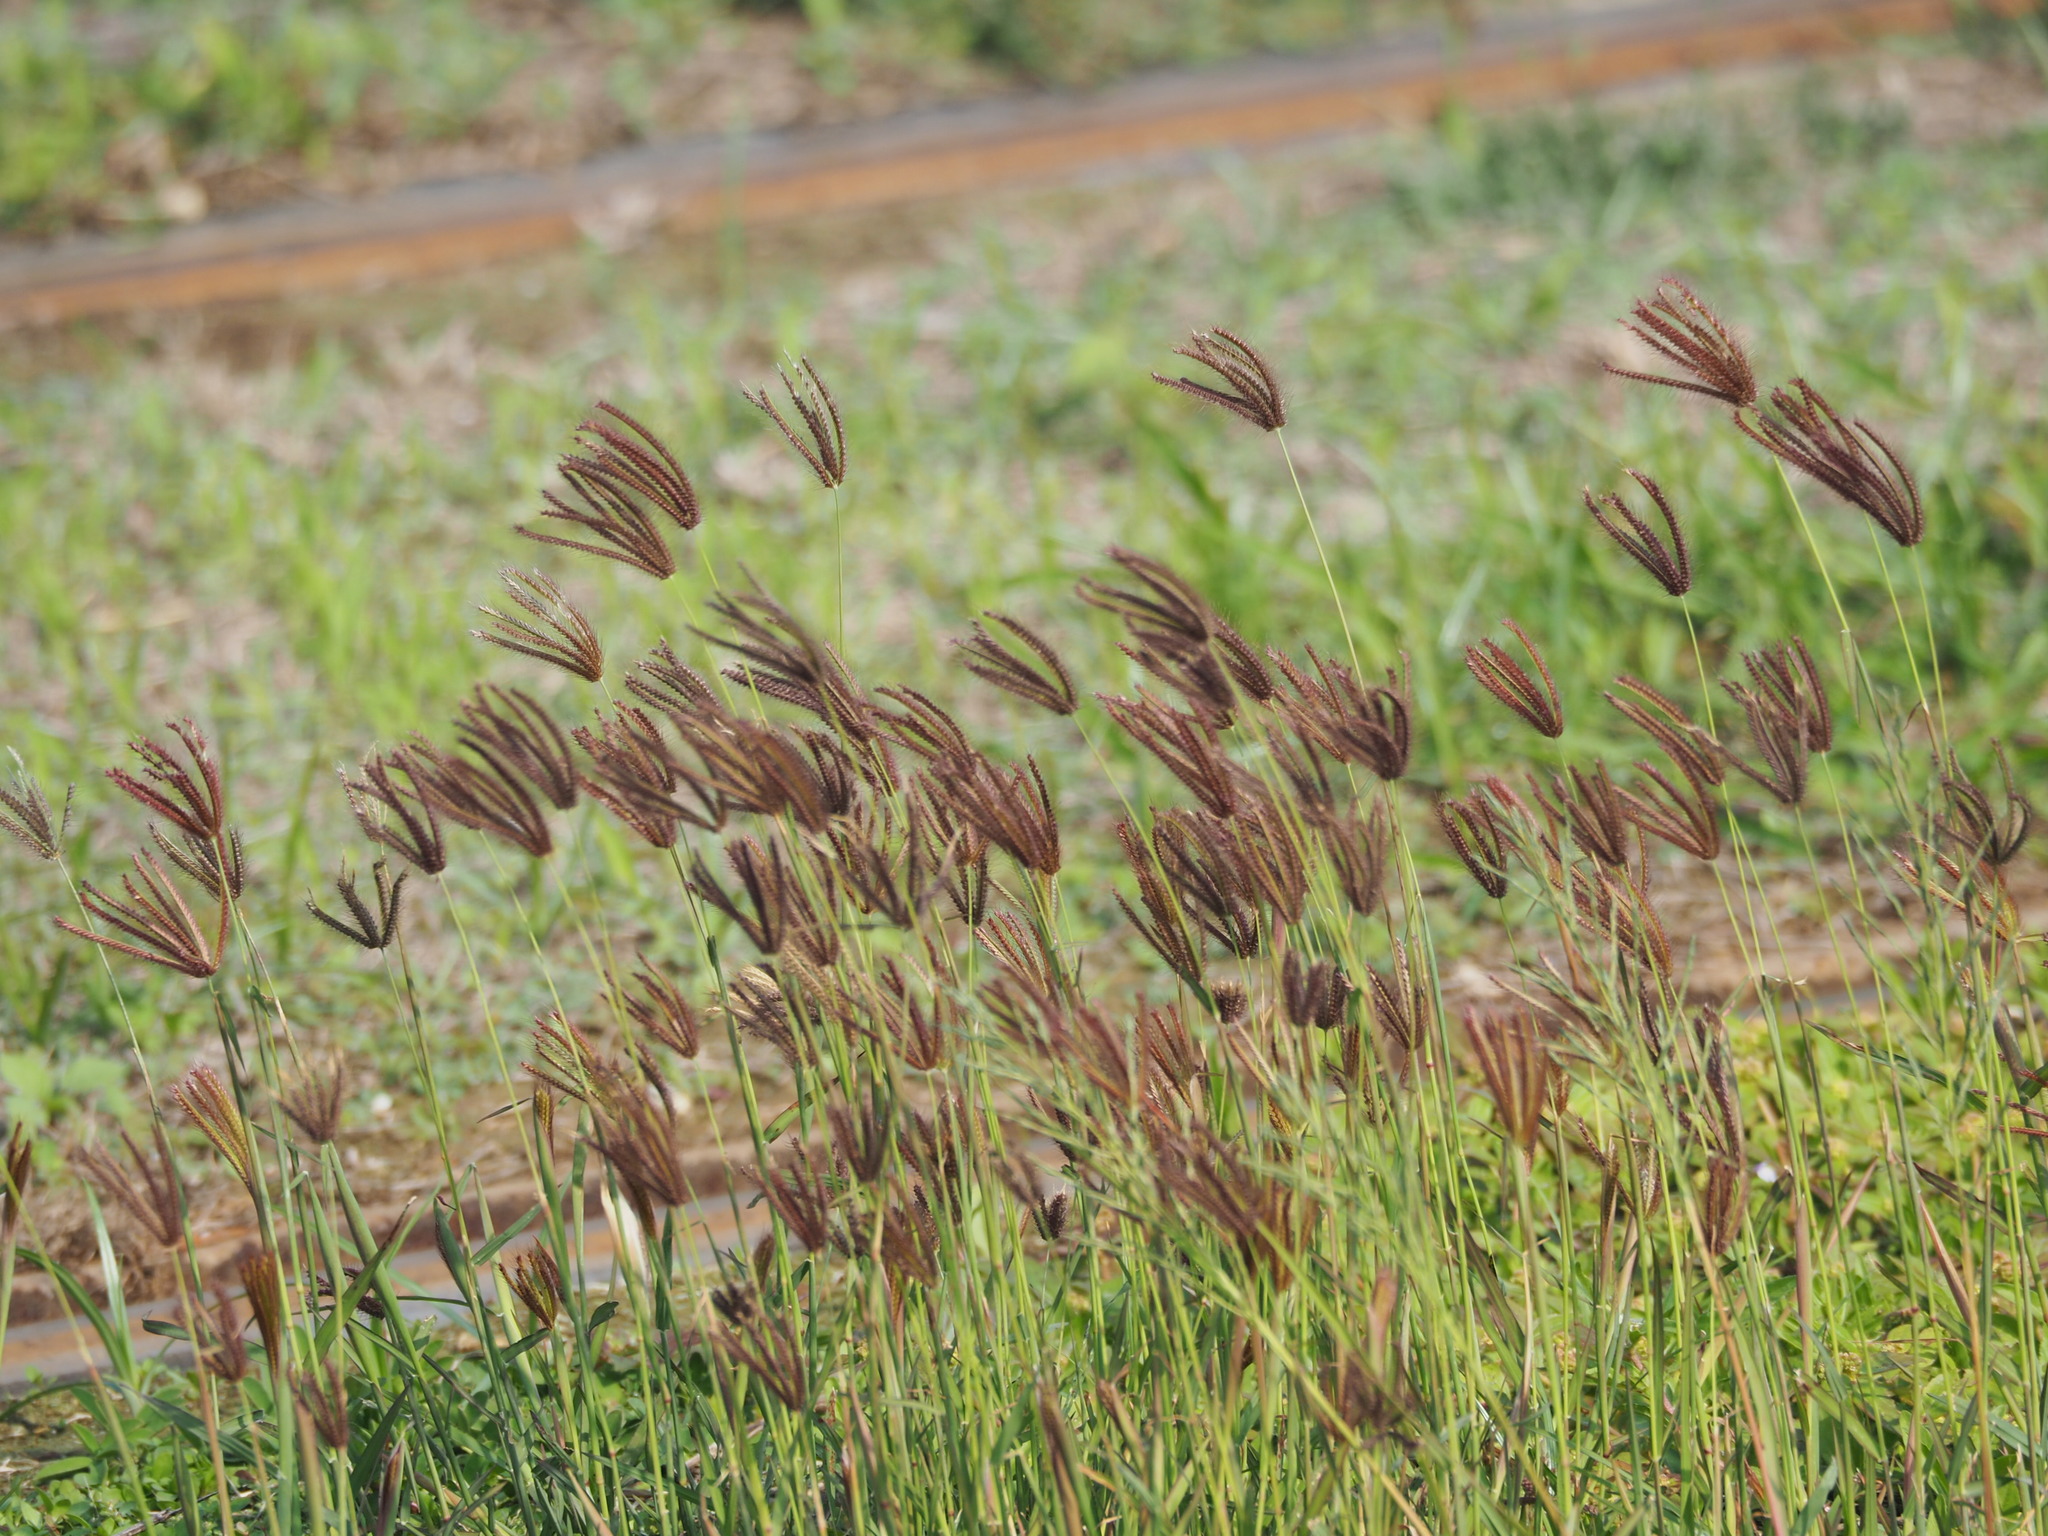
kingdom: Plantae
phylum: Tracheophyta
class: Liliopsida
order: Poales
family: Poaceae
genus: Chloris
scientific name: Chloris barbata
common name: Swollen fingergrass
